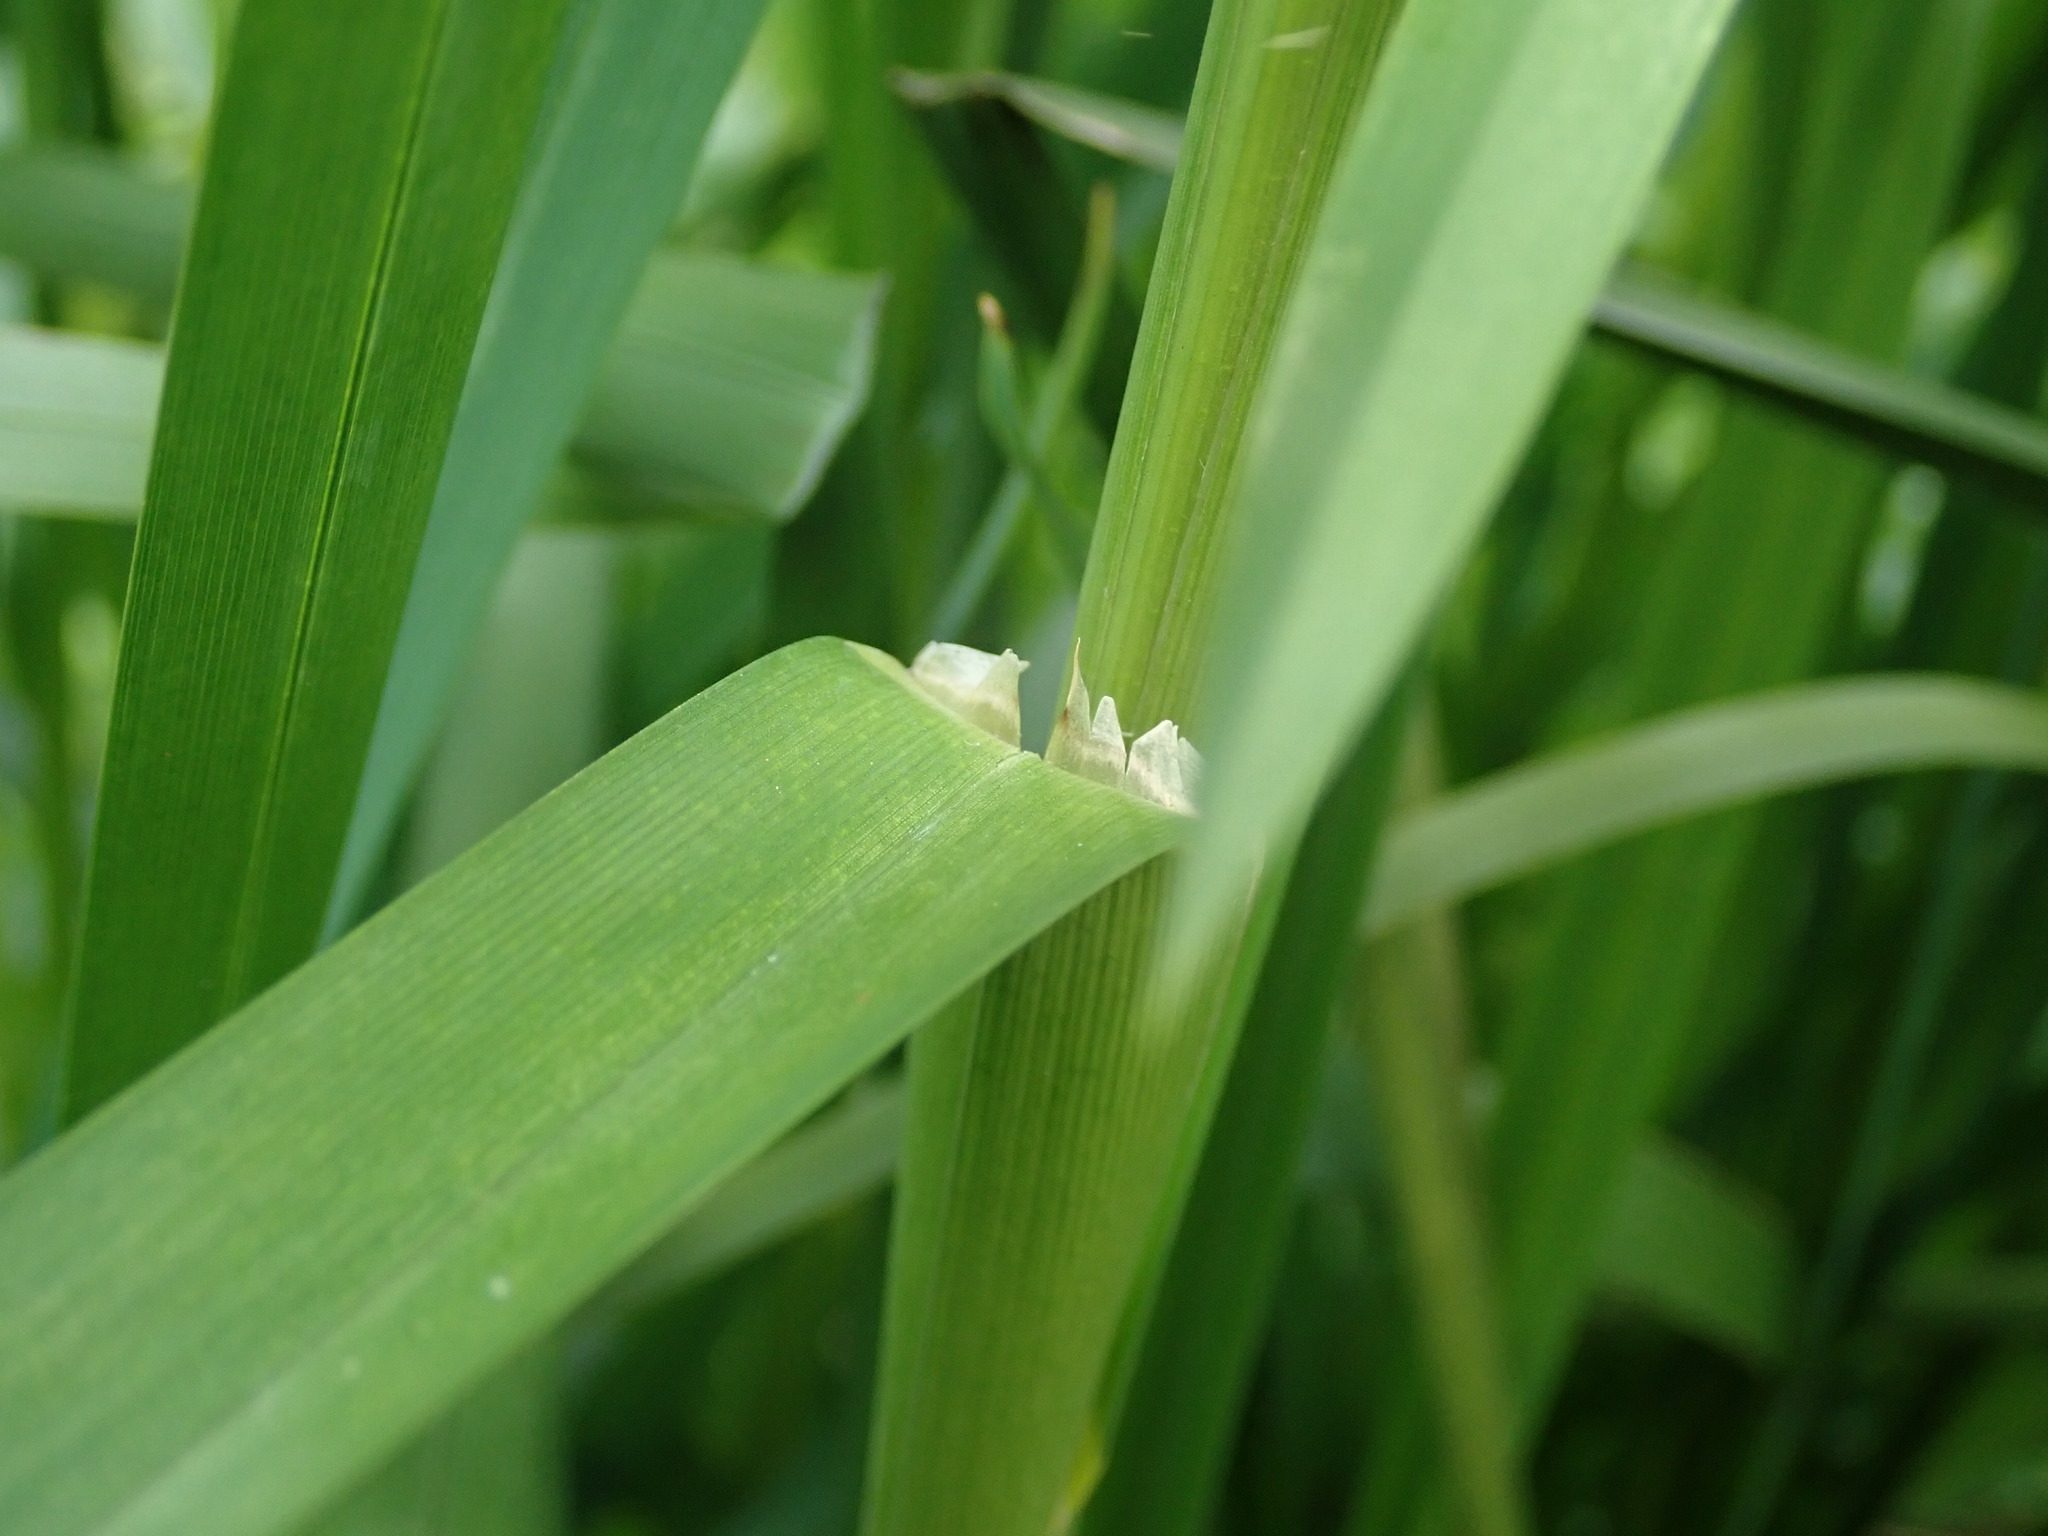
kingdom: Plantae
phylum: Tracheophyta
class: Liliopsida
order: Poales
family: Poaceae
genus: Glyceria
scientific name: Glyceria maxima
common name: Reed mannagrass
